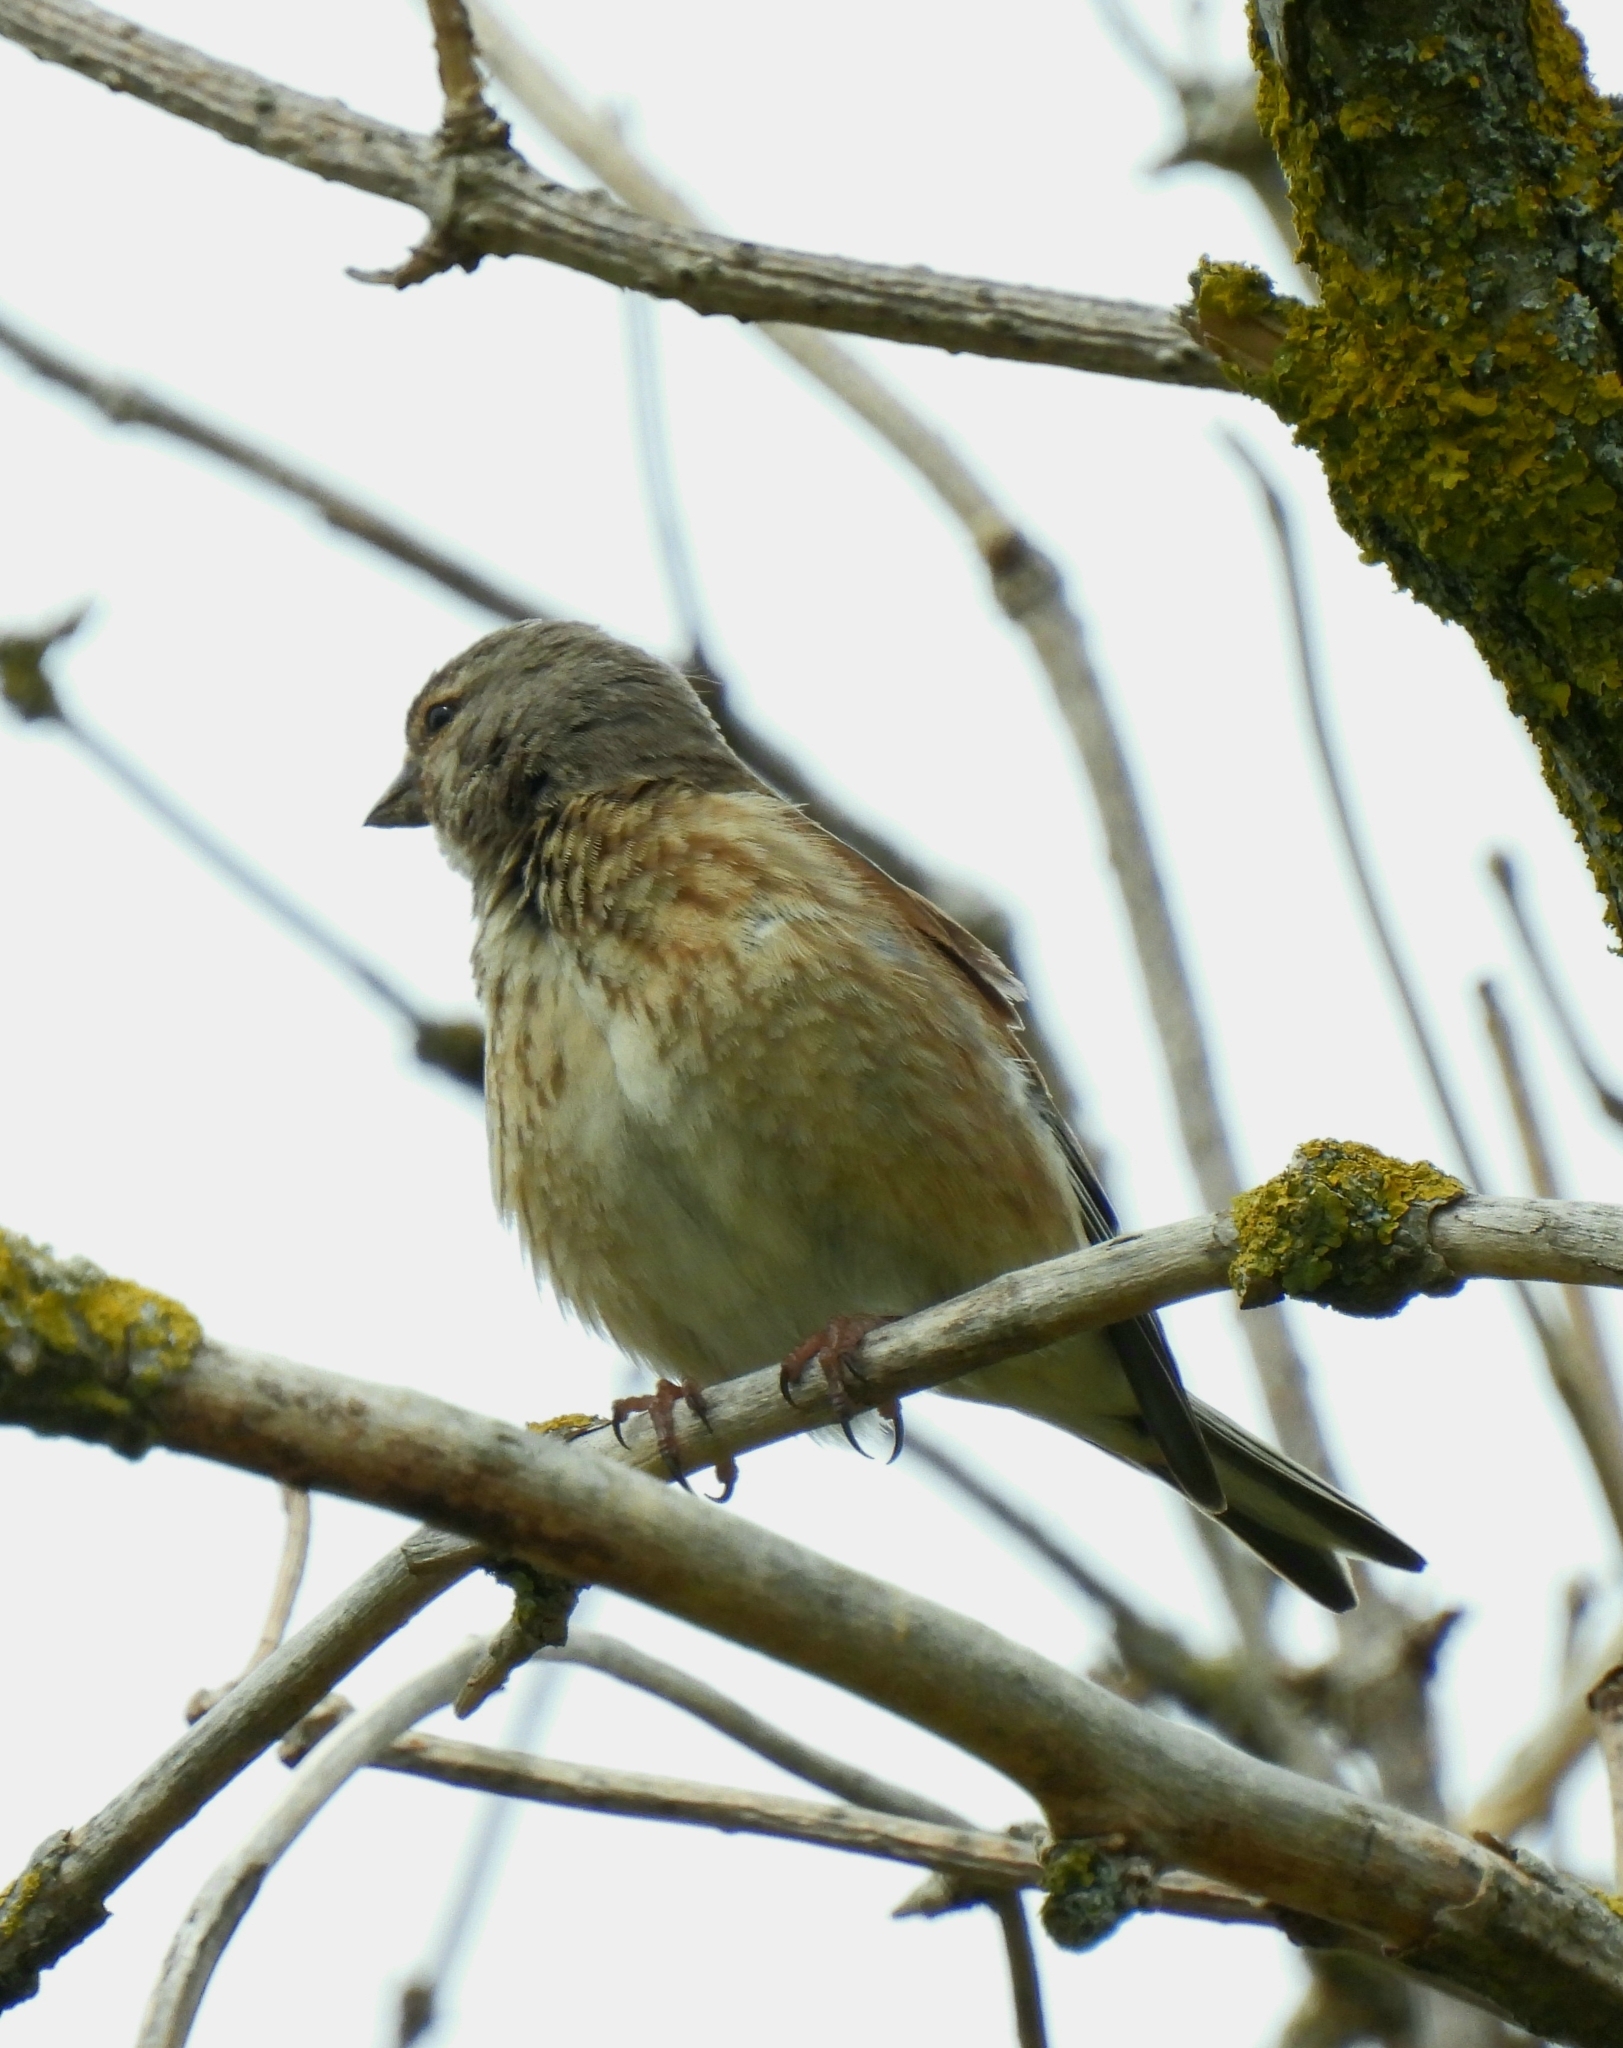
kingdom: Animalia
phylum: Chordata
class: Aves
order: Passeriformes
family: Fringillidae
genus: Linaria
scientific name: Linaria cannabina
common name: Common linnet
